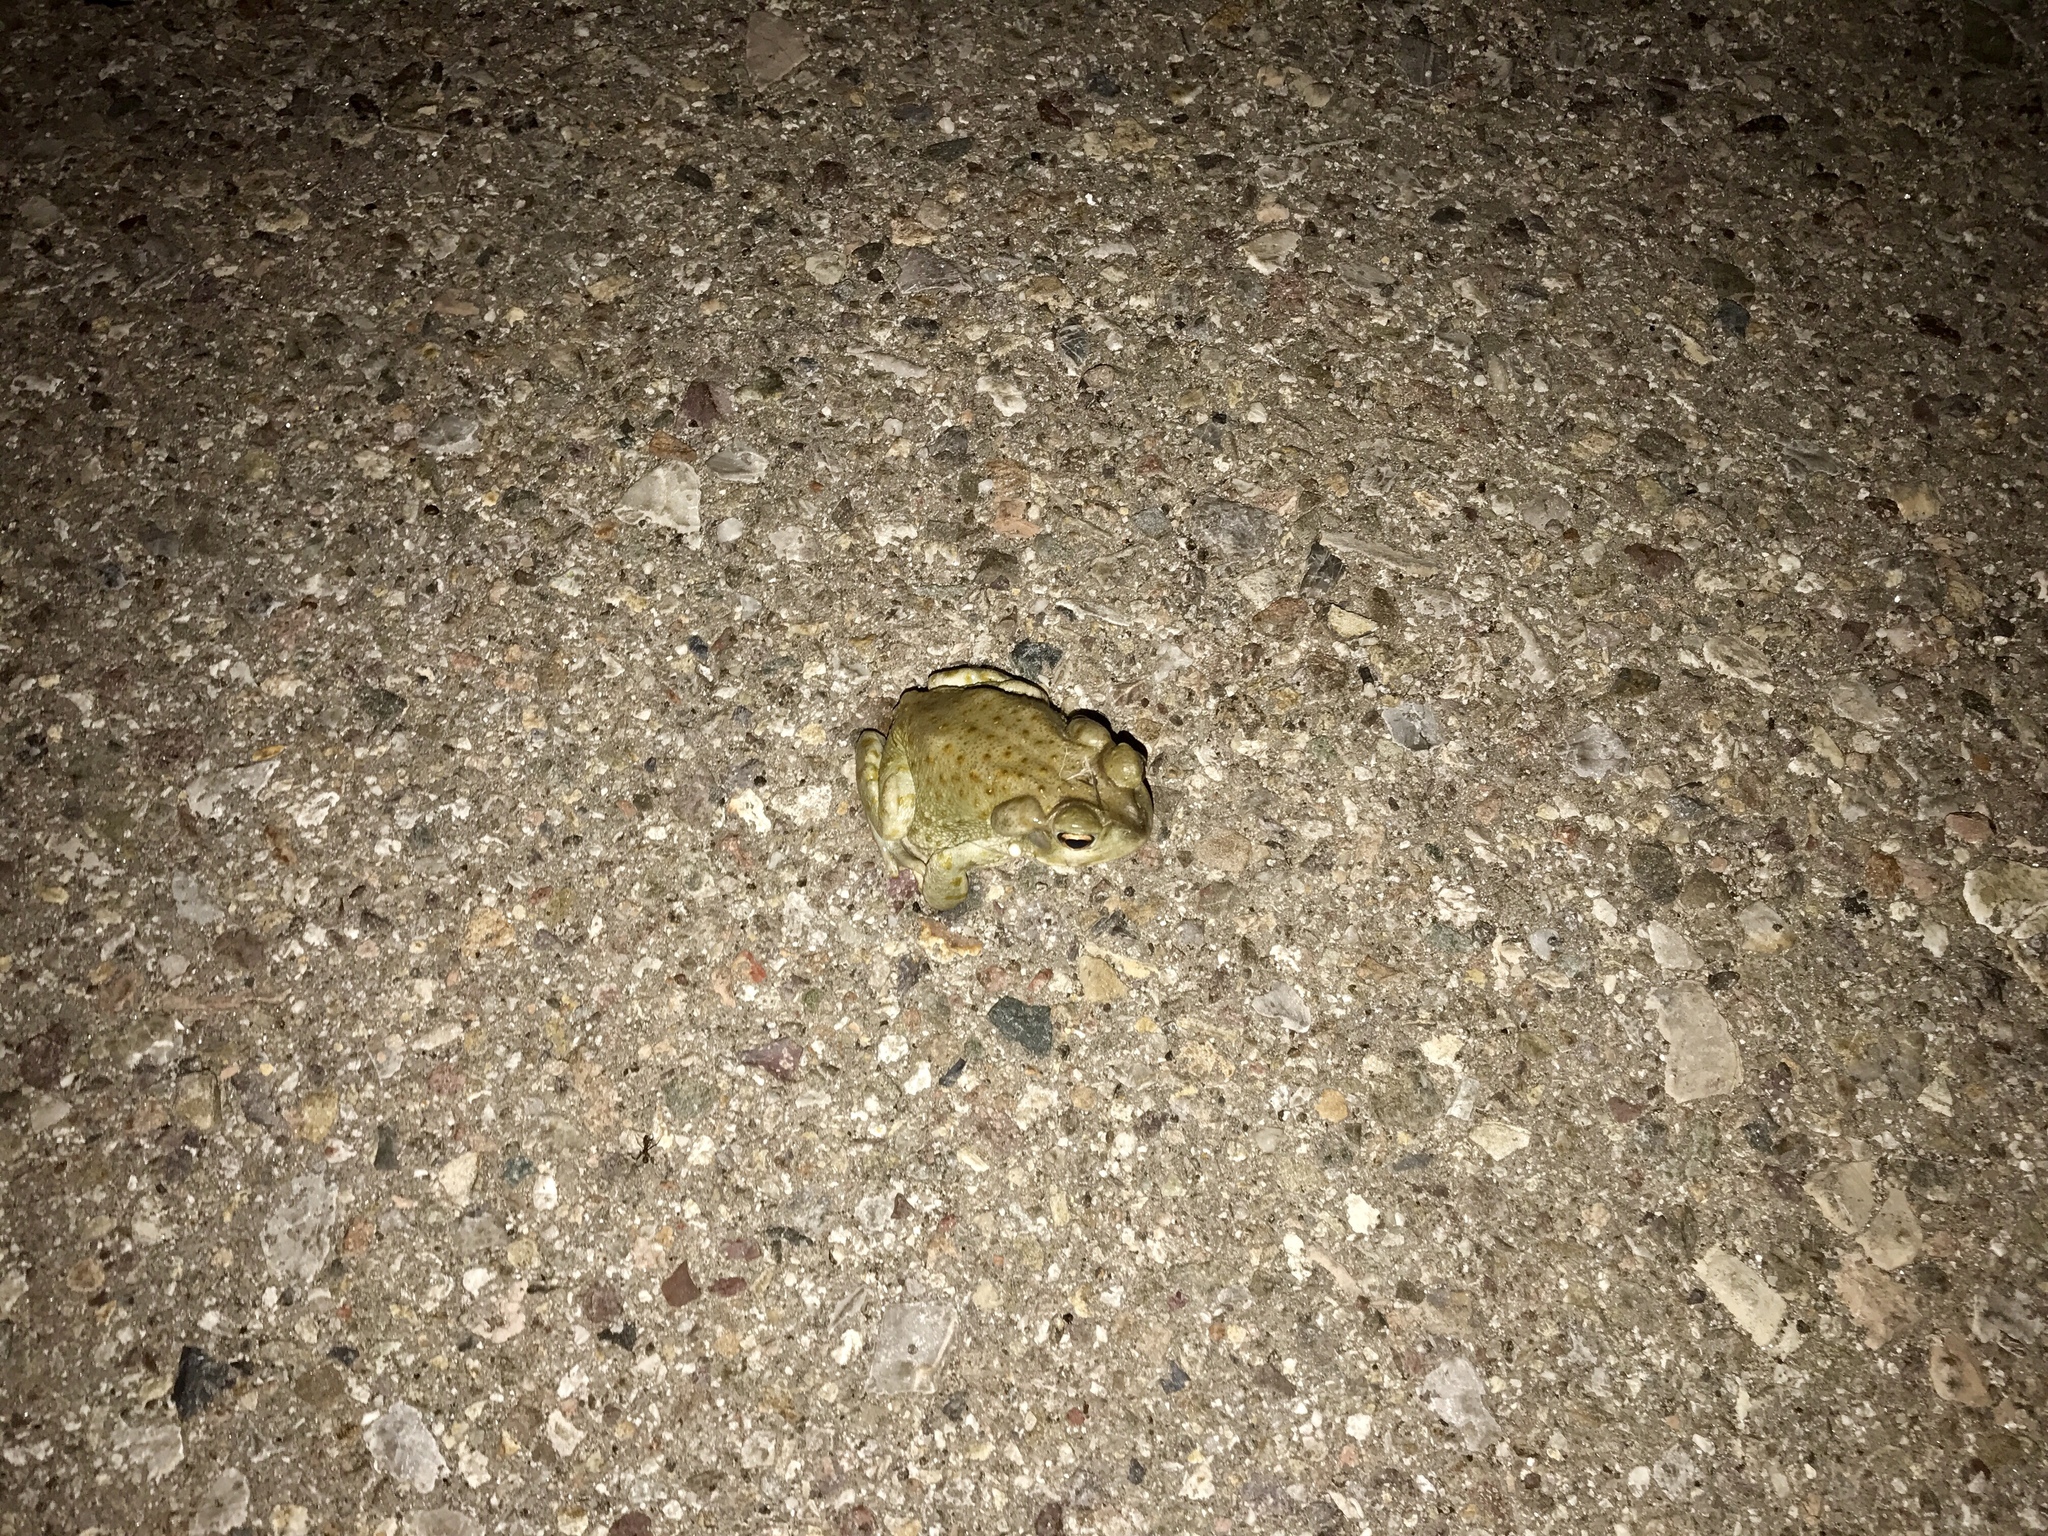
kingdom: Animalia
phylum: Chordata
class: Amphibia
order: Anura
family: Bufonidae
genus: Incilius
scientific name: Incilius alvarius
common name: Sonoran desert toad
